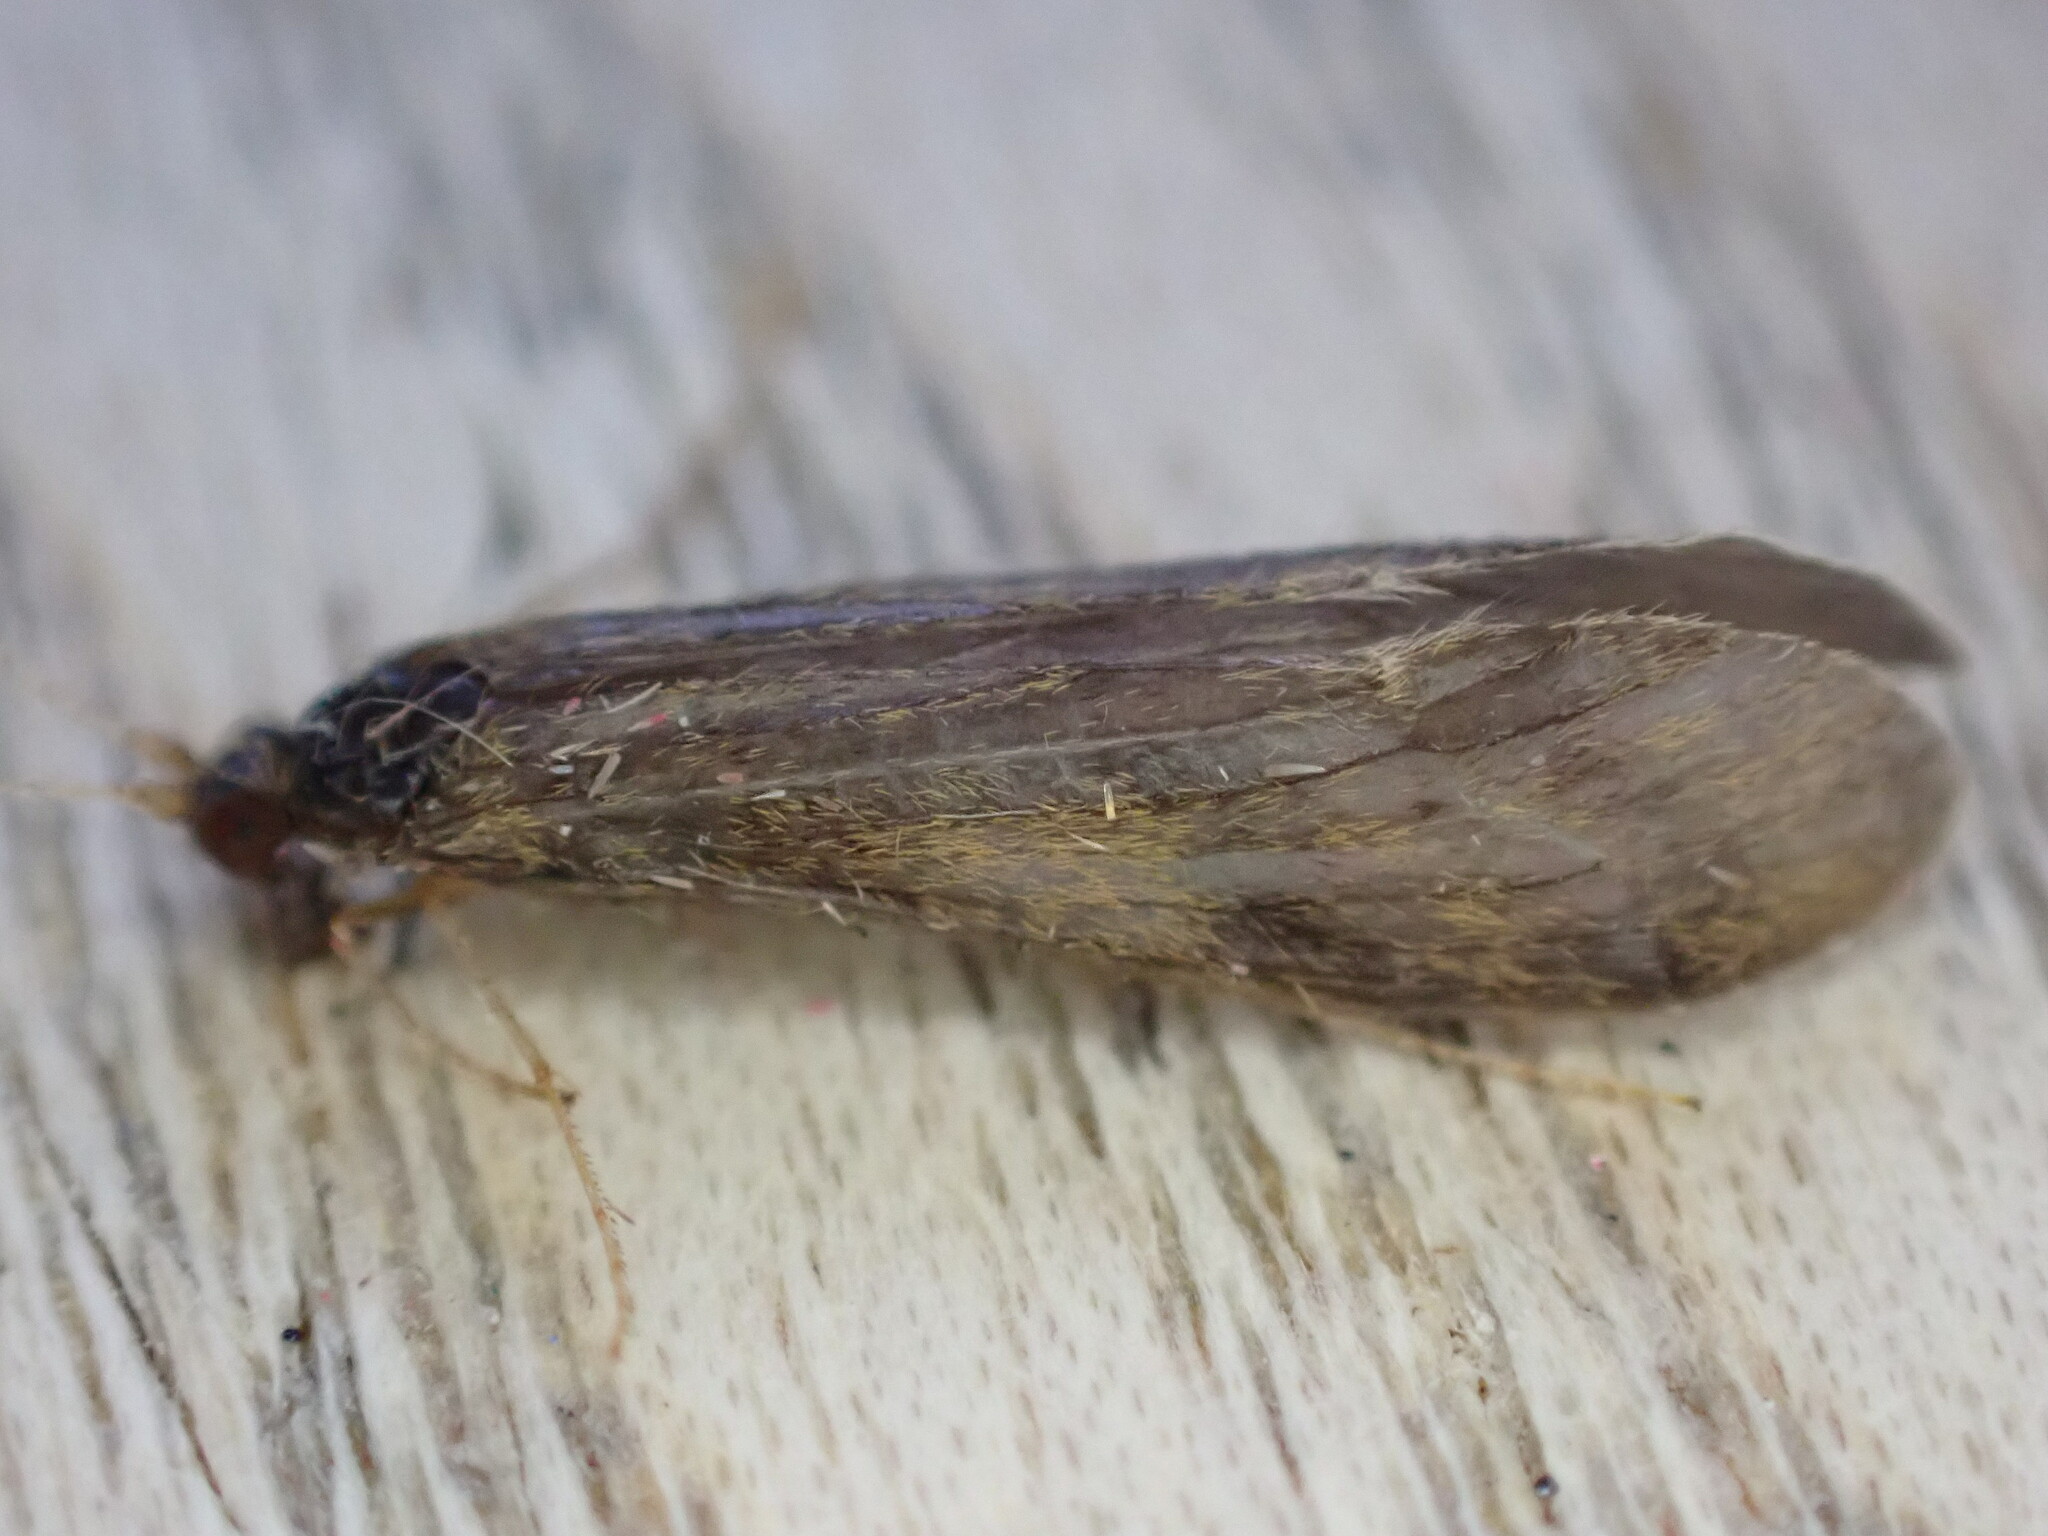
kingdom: Animalia
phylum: Arthropoda
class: Insecta
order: Trichoptera
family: Leptoceridae
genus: Mystacides
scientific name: Mystacides longicornis
